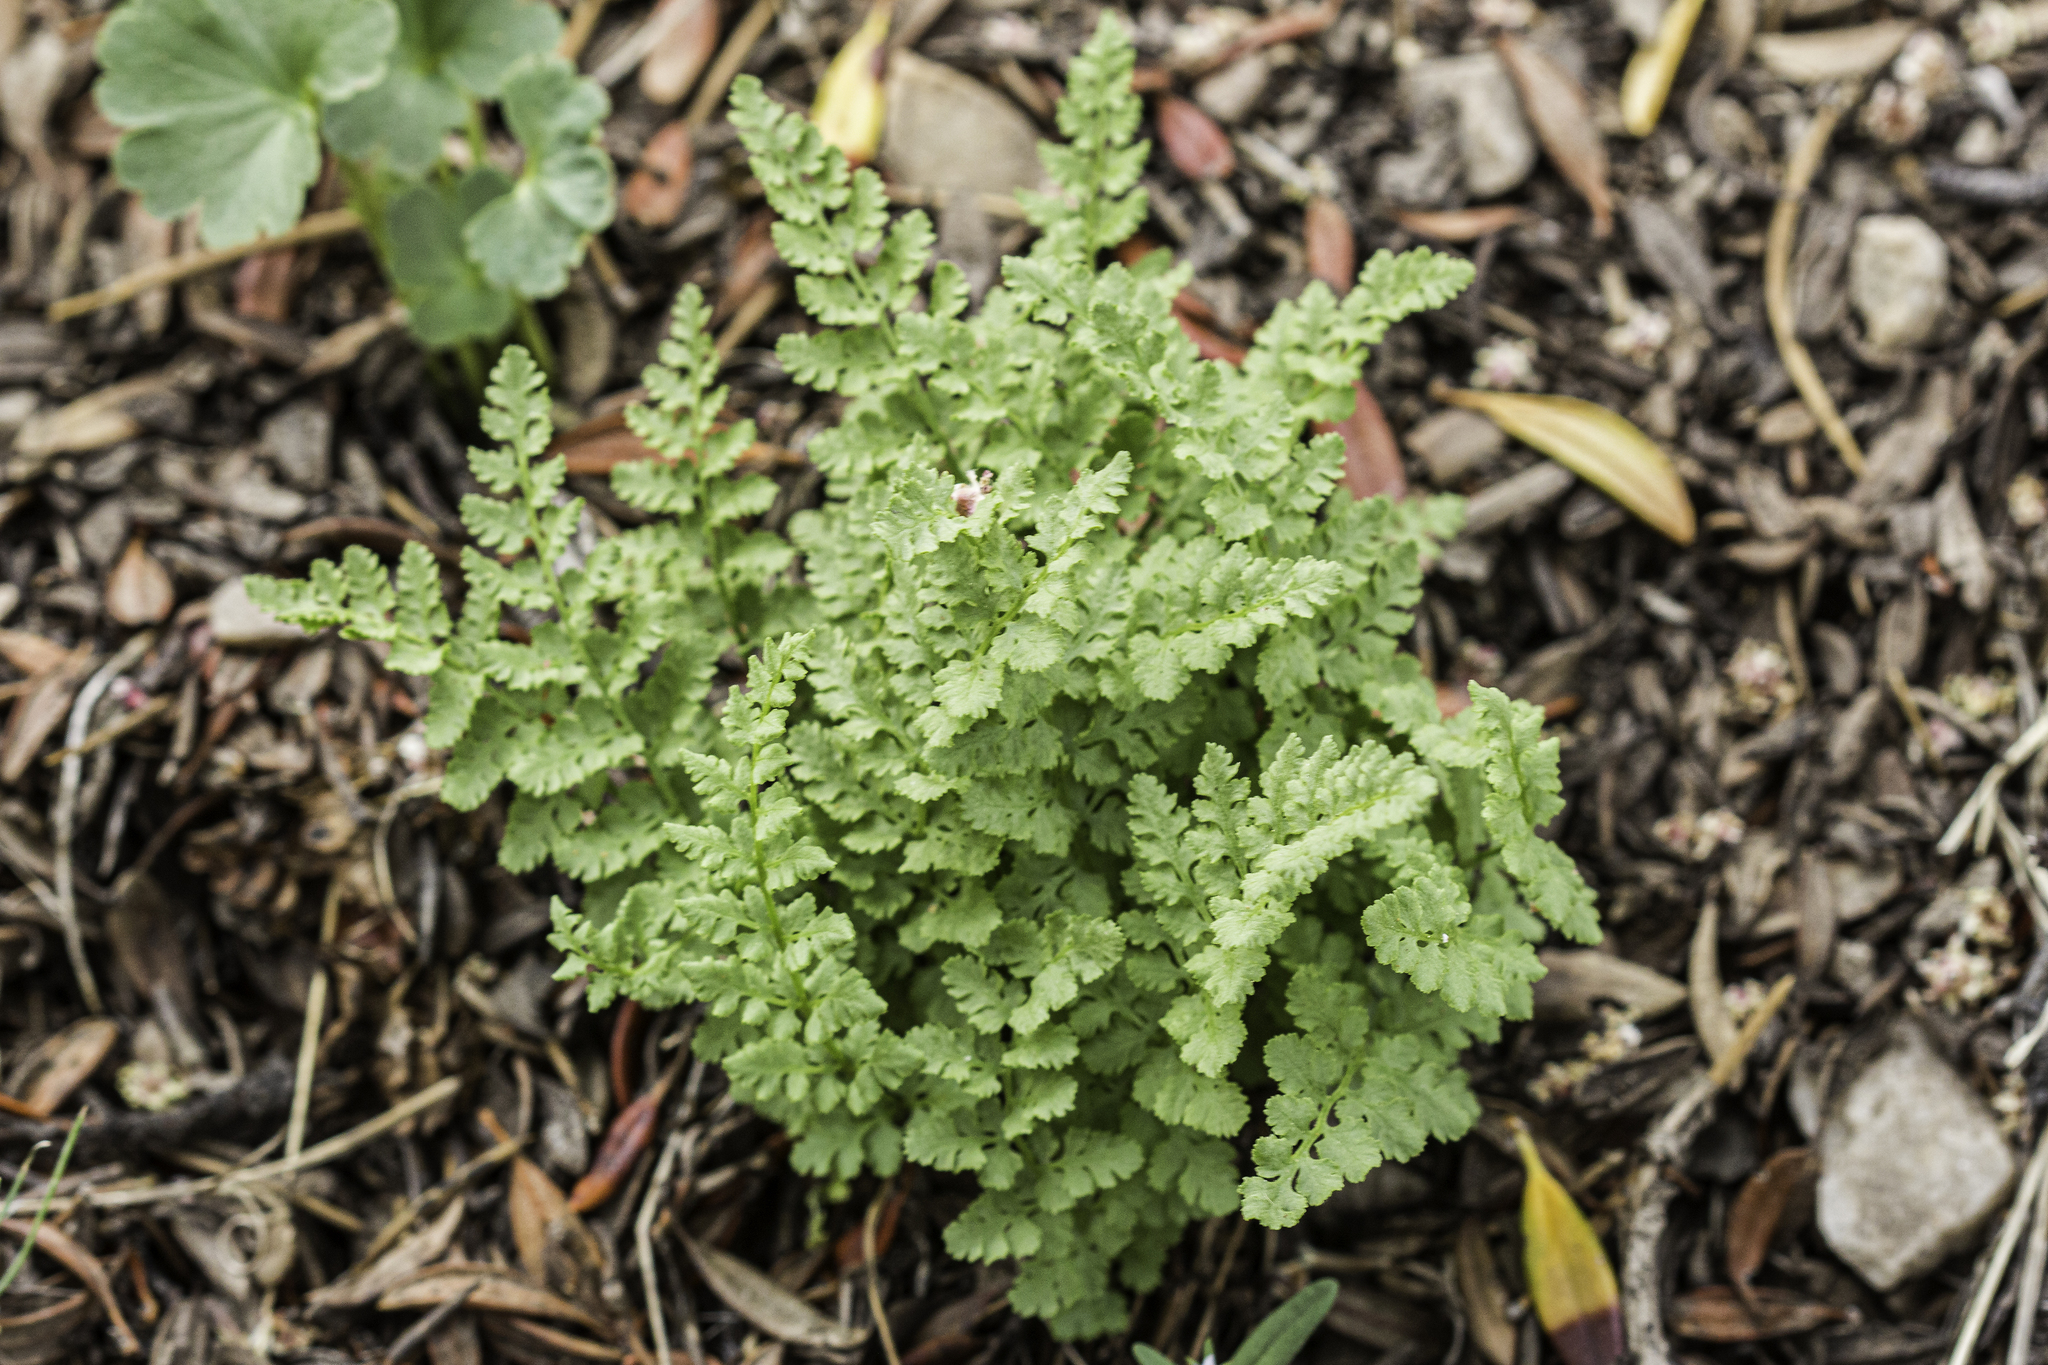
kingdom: Plantae
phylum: Tracheophyta
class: Polypodiopsida
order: Polypodiales
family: Woodsiaceae
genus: Physematium
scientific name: Physematium oreganum
